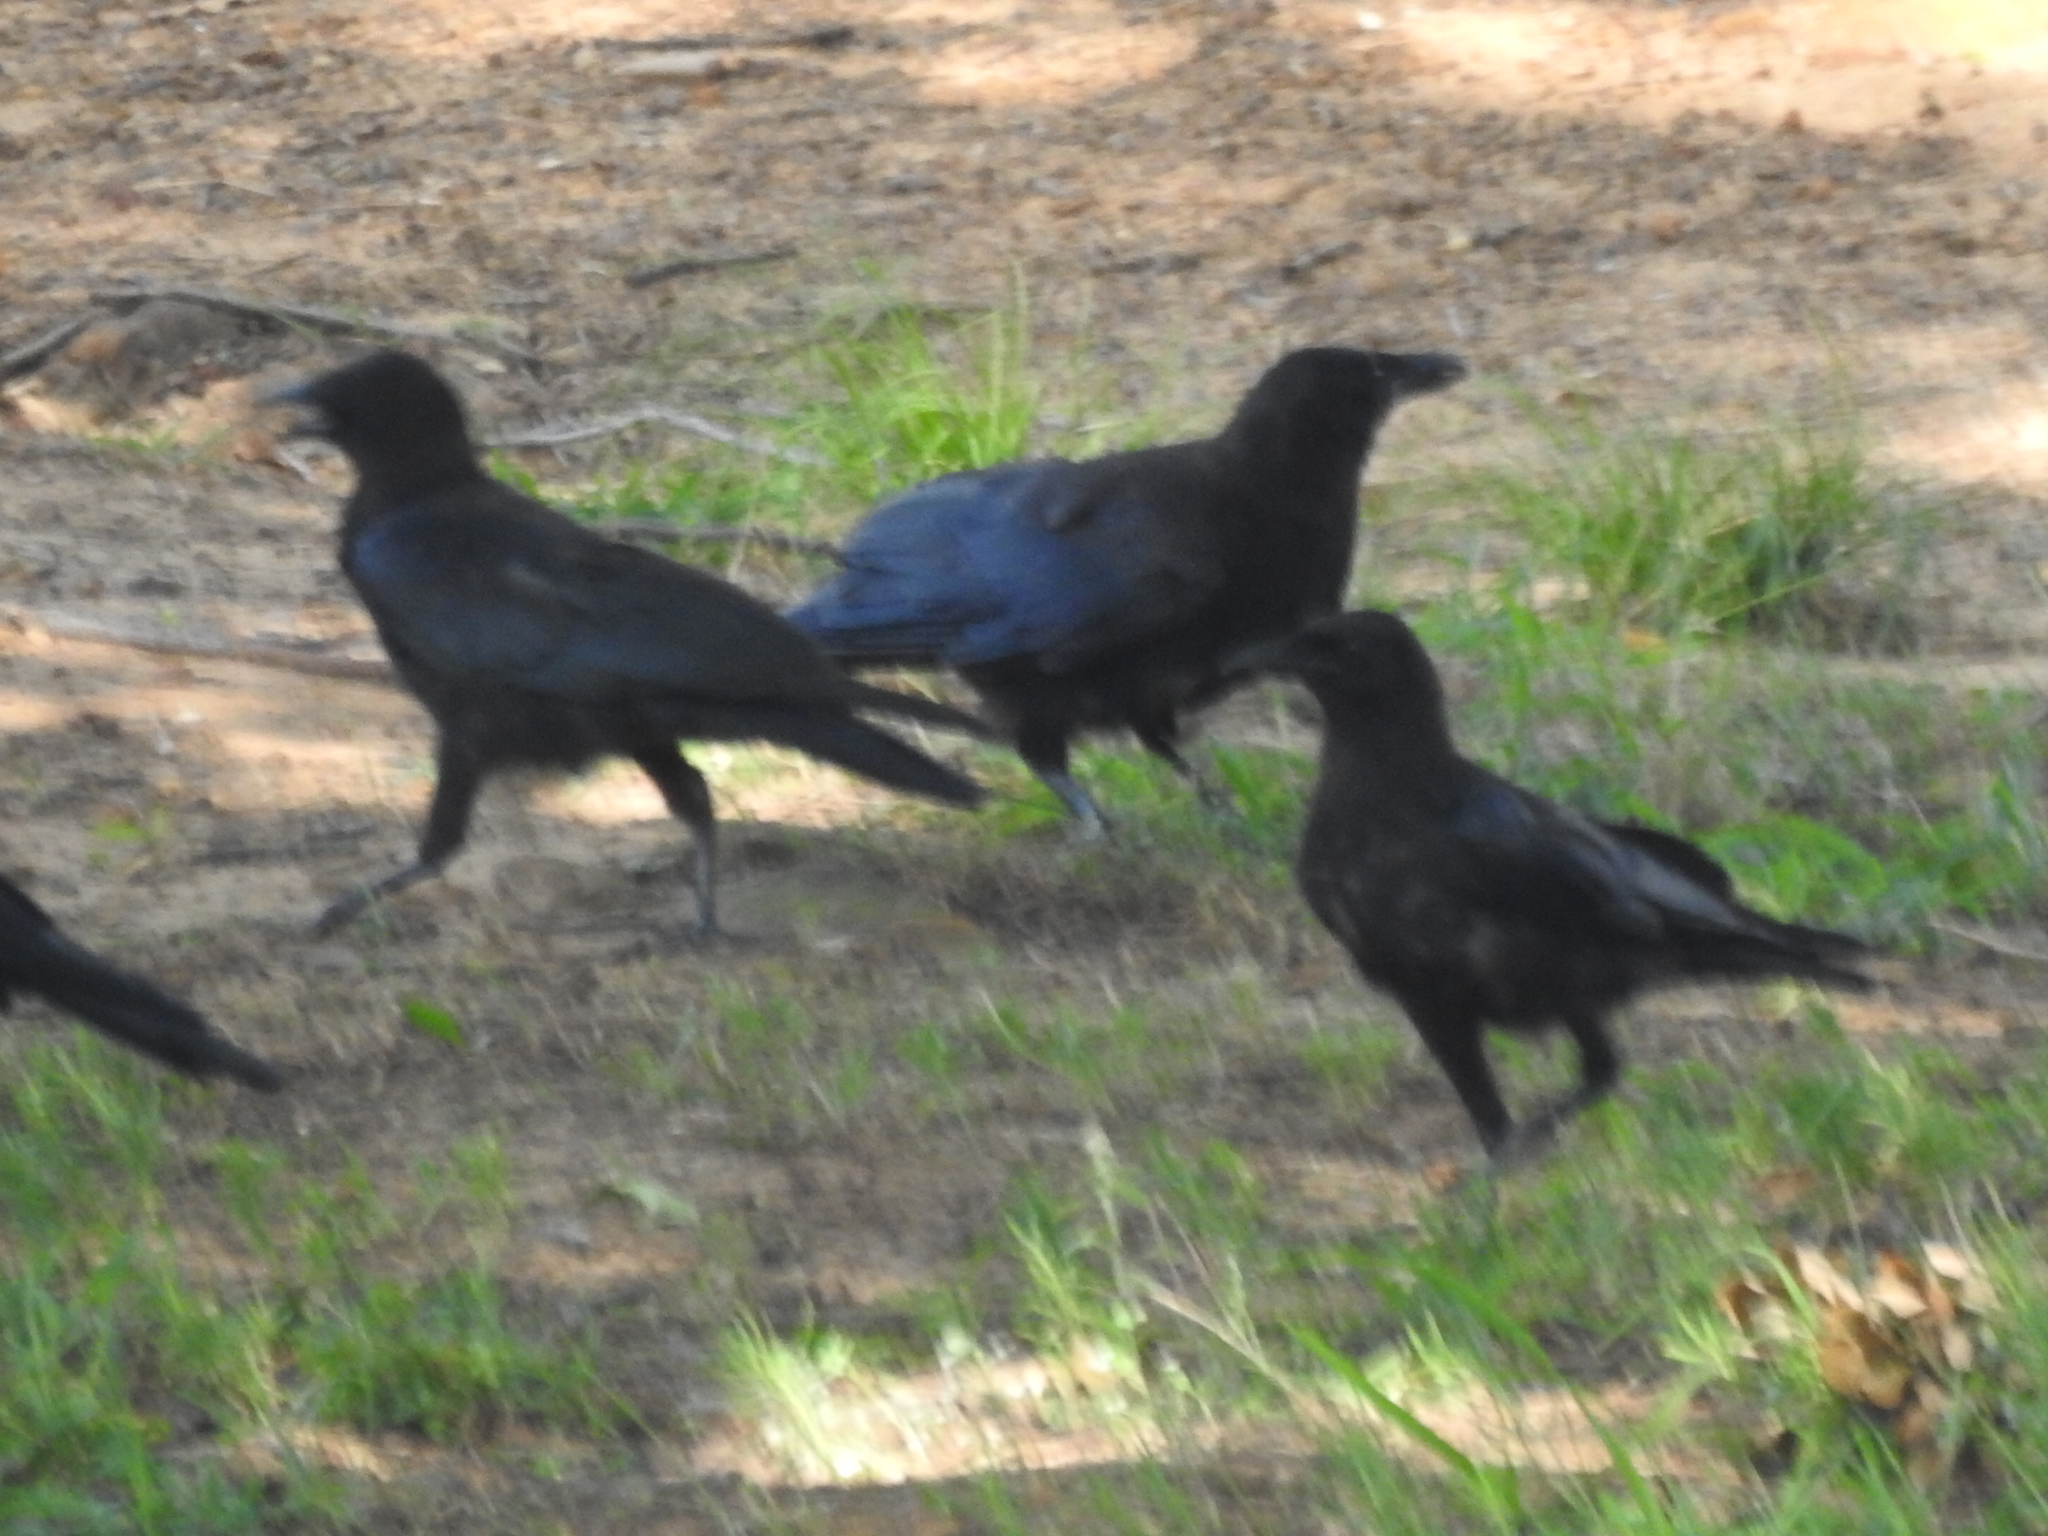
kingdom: Animalia
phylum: Chordata
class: Aves
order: Passeriformes
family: Corvidae
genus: Corvus
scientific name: Corvus brachyrhynchos
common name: American crow
